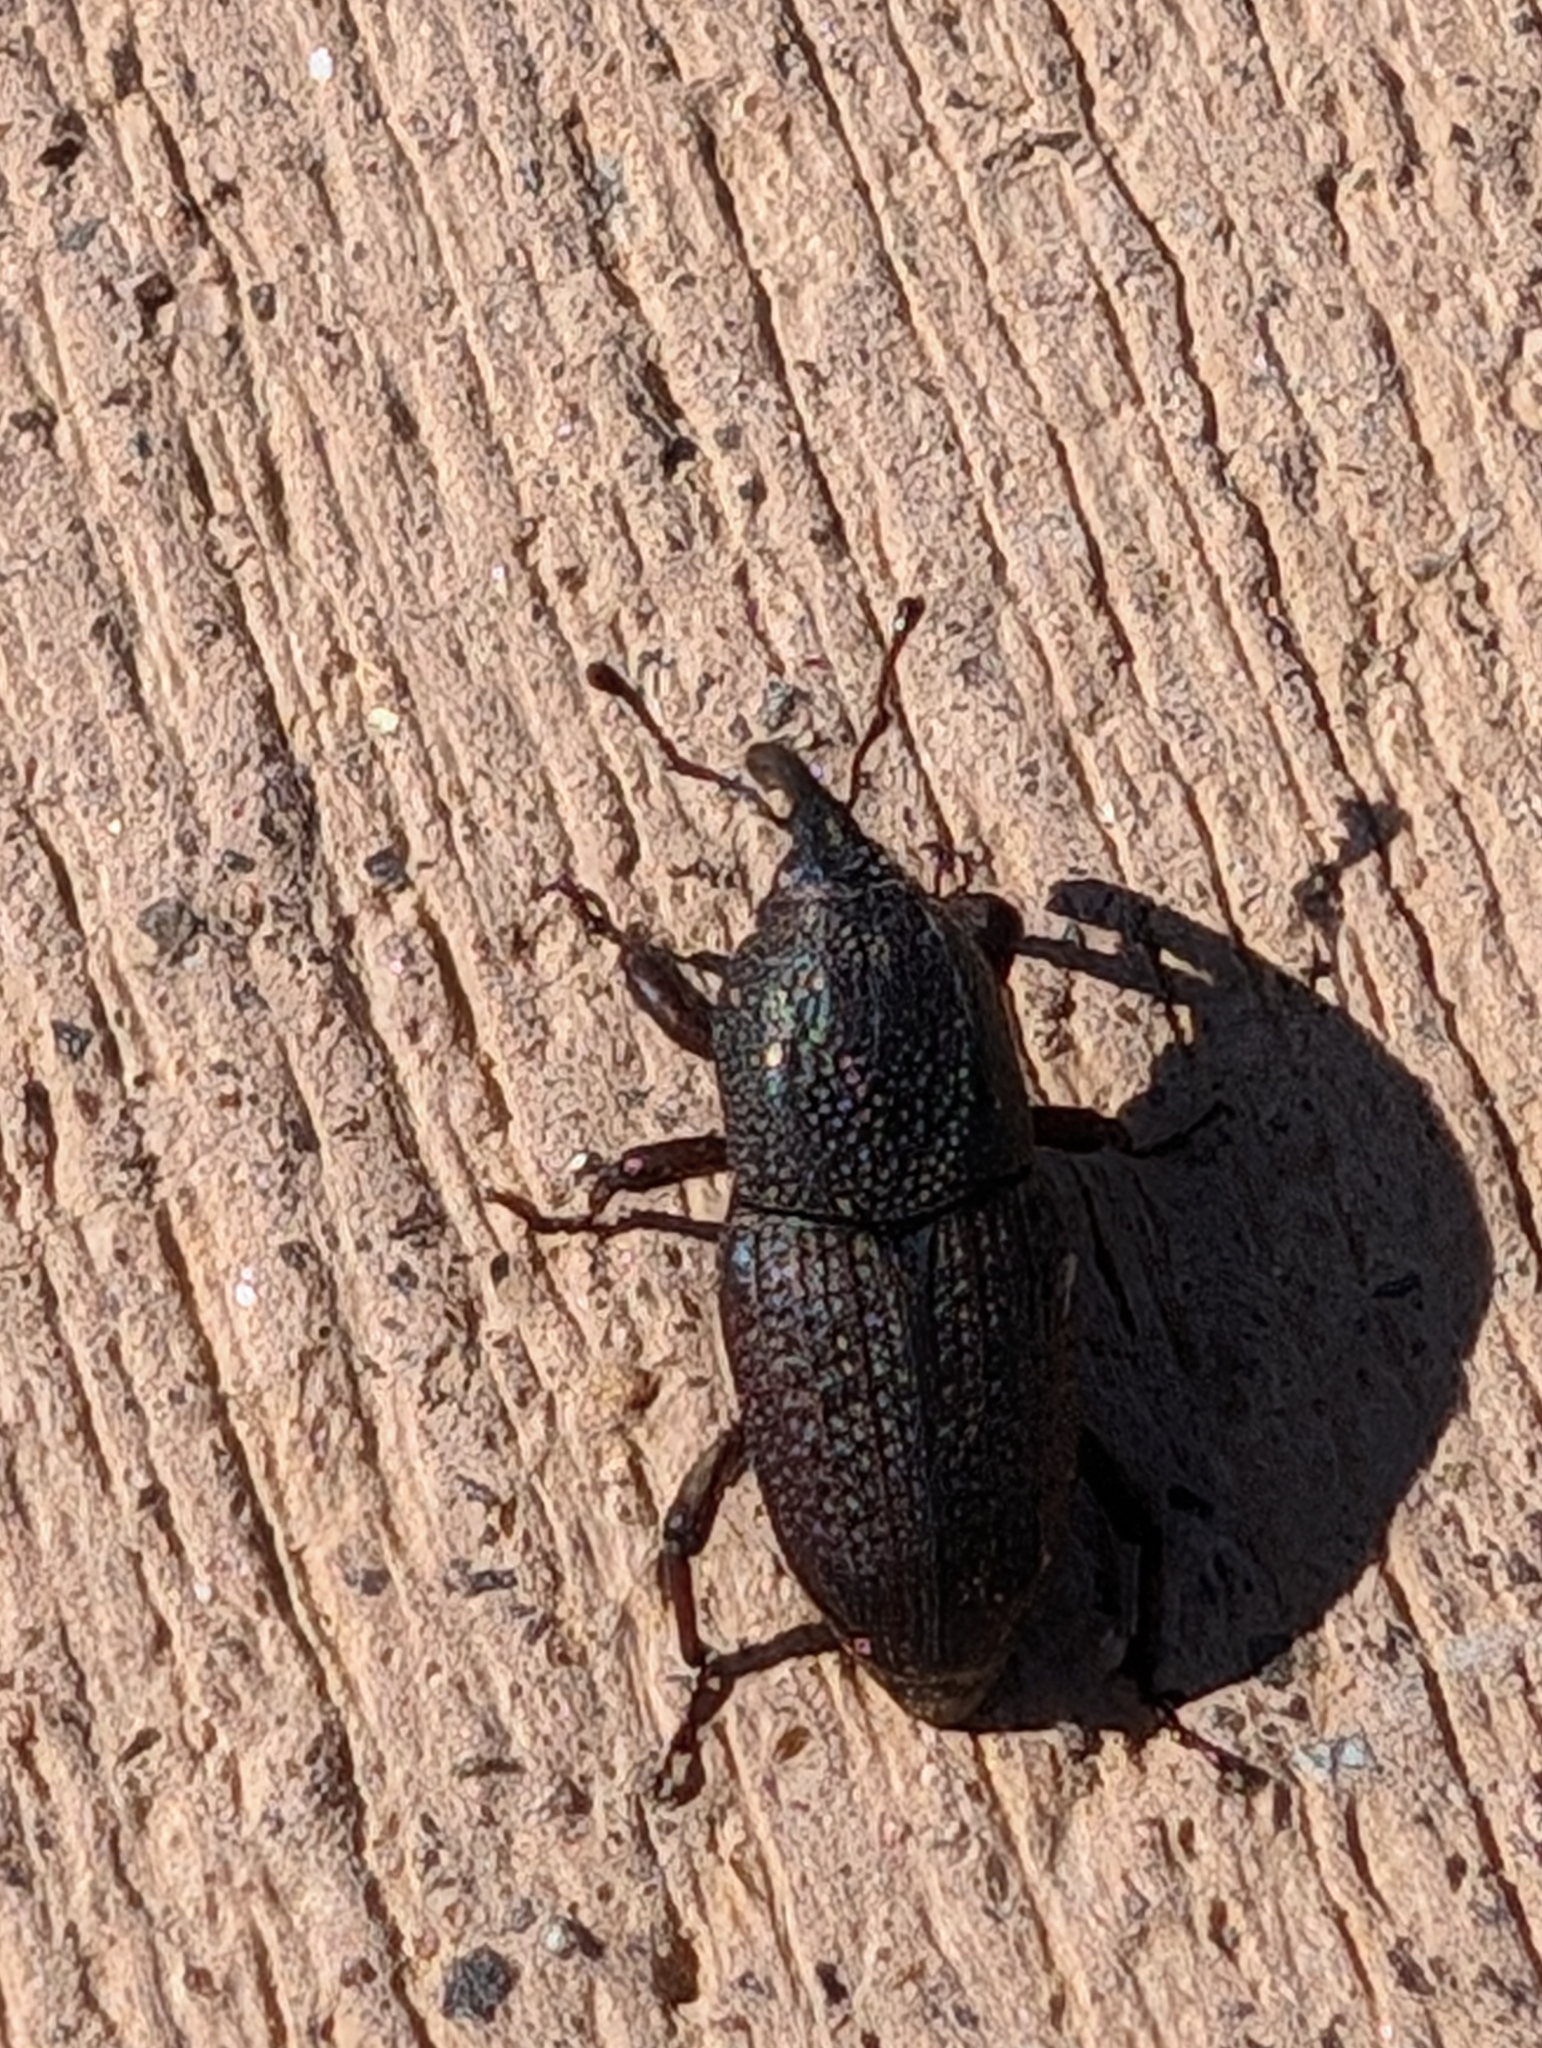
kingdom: Animalia
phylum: Arthropoda
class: Insecta
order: Coleoptera
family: Dryophthoridae
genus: Sphenophorus
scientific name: Sphenophorus venatus
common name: Hunting billbug
